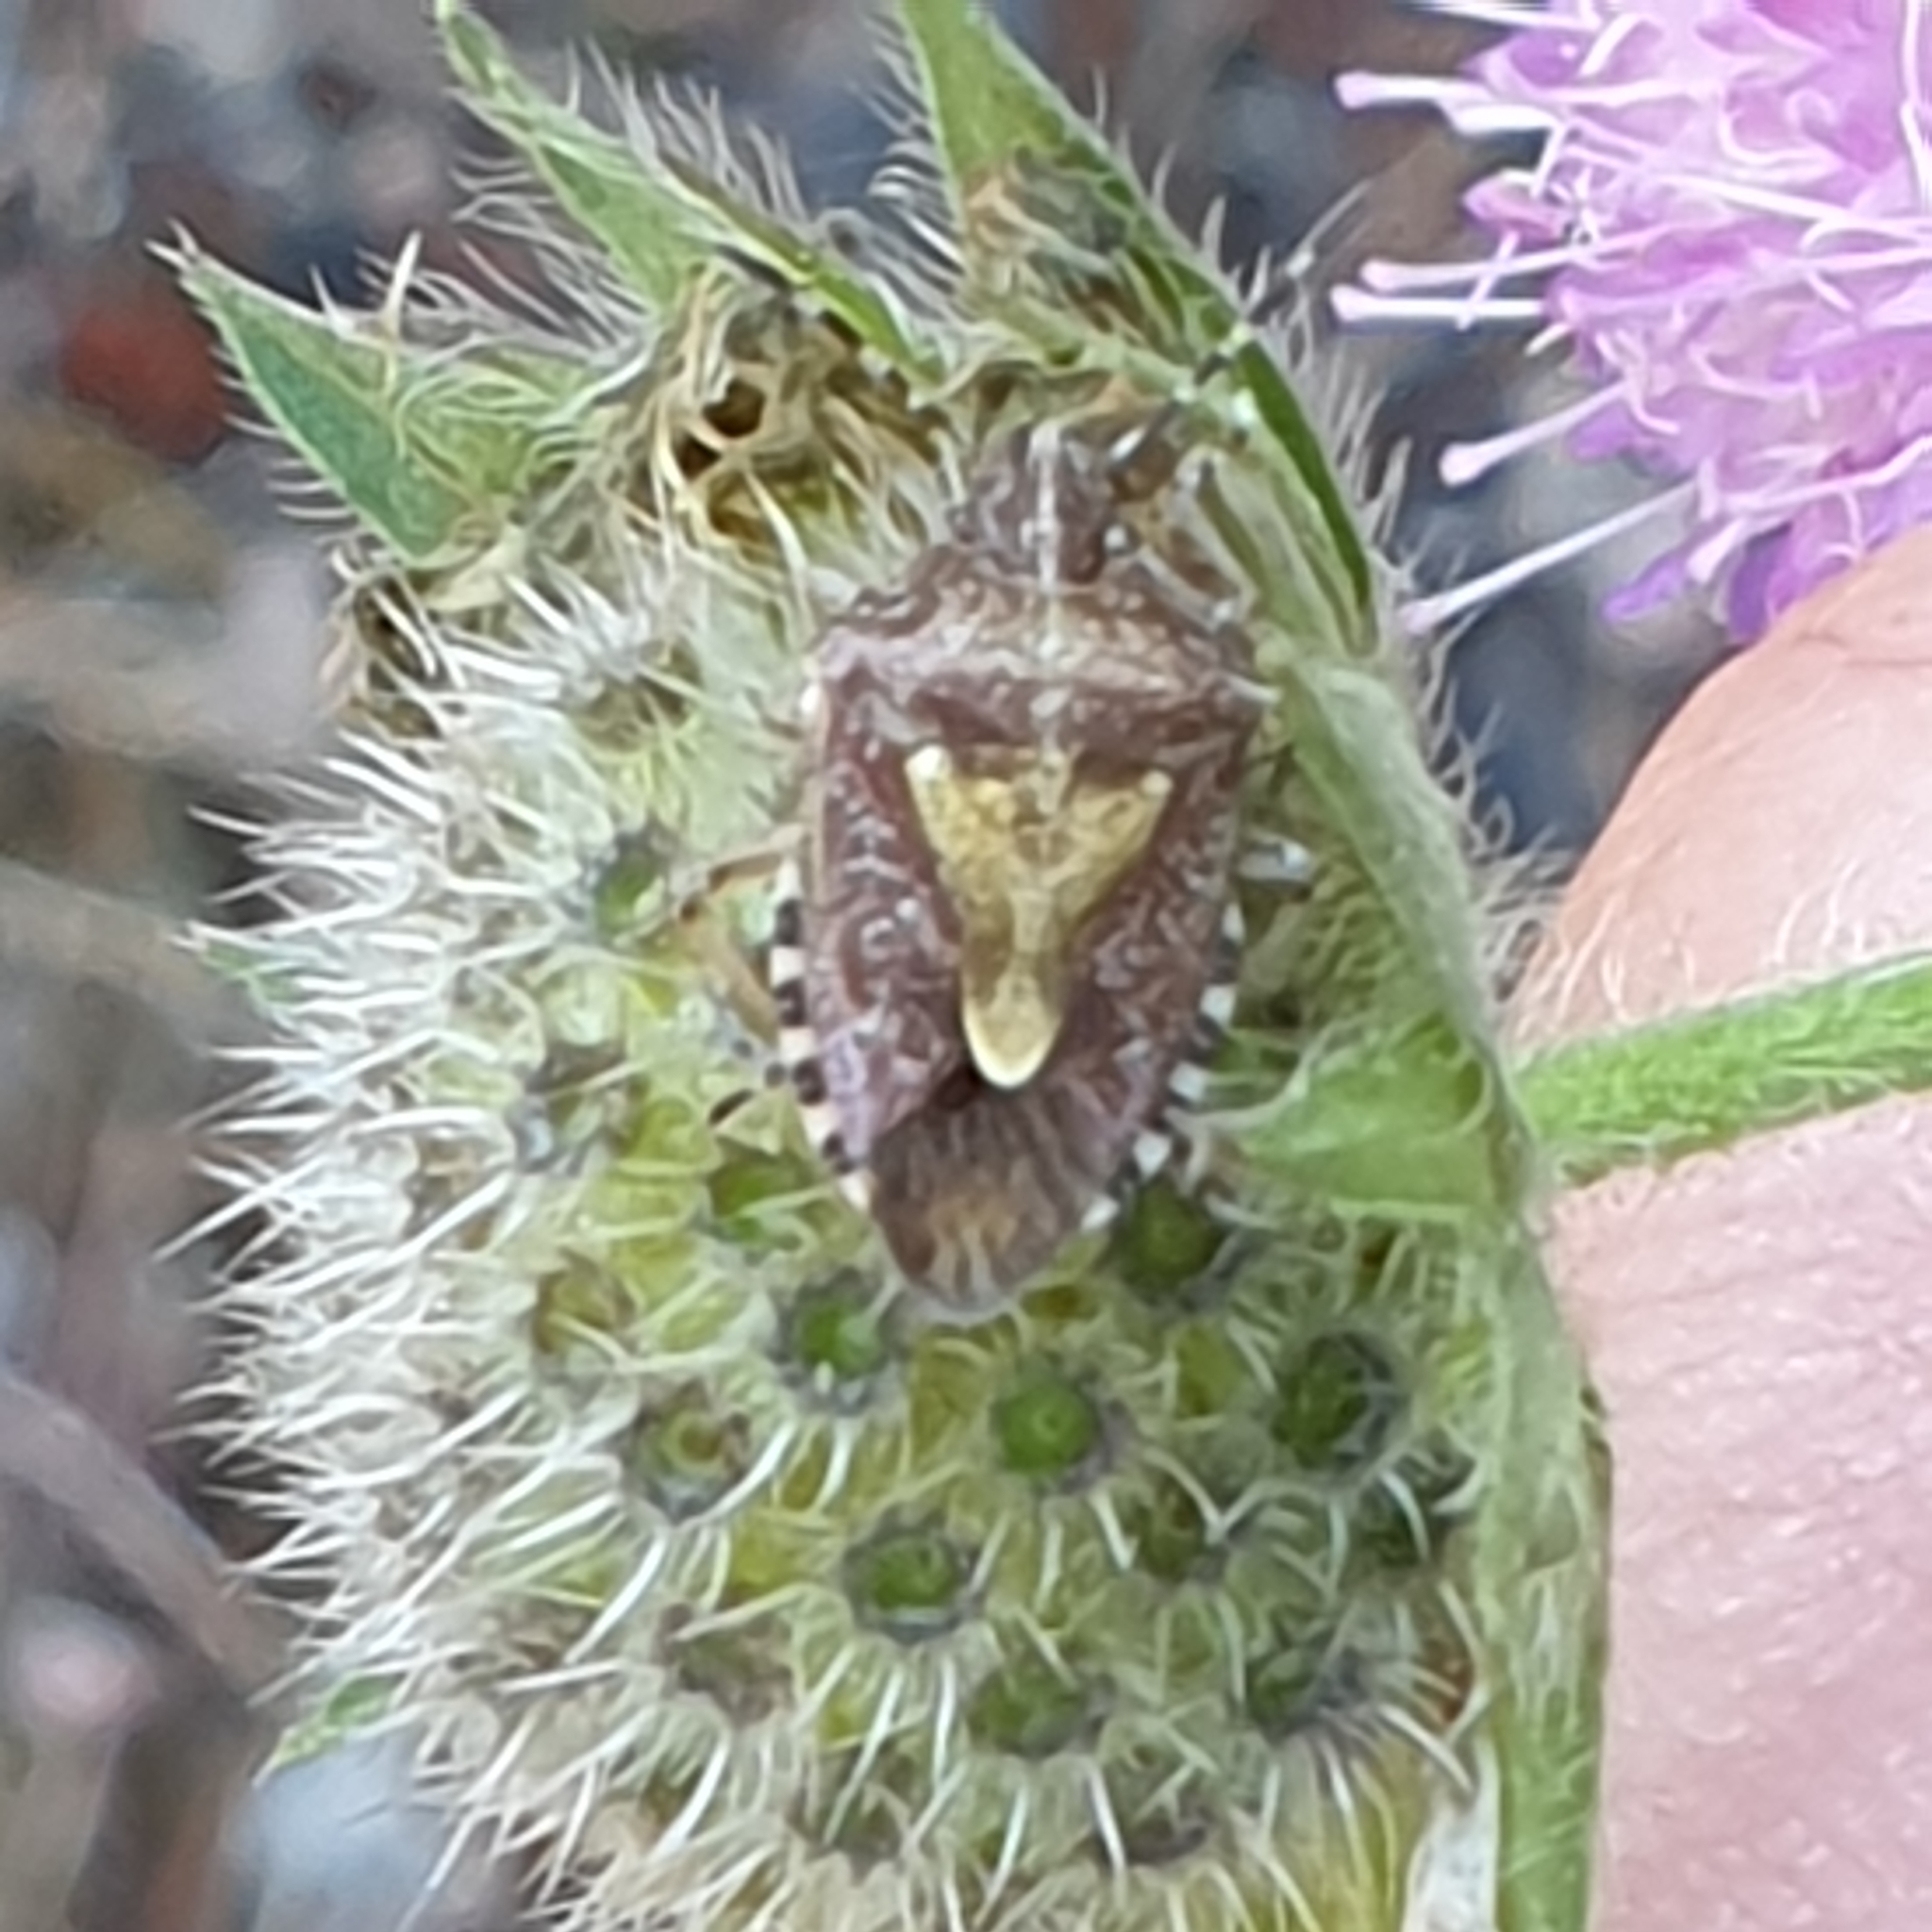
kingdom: Animalia
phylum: Arthropoda
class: Insecta
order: Hemiptera
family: Pentatomidae
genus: Dolycoris
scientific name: Dolycoris baccarum
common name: Sloe bug
